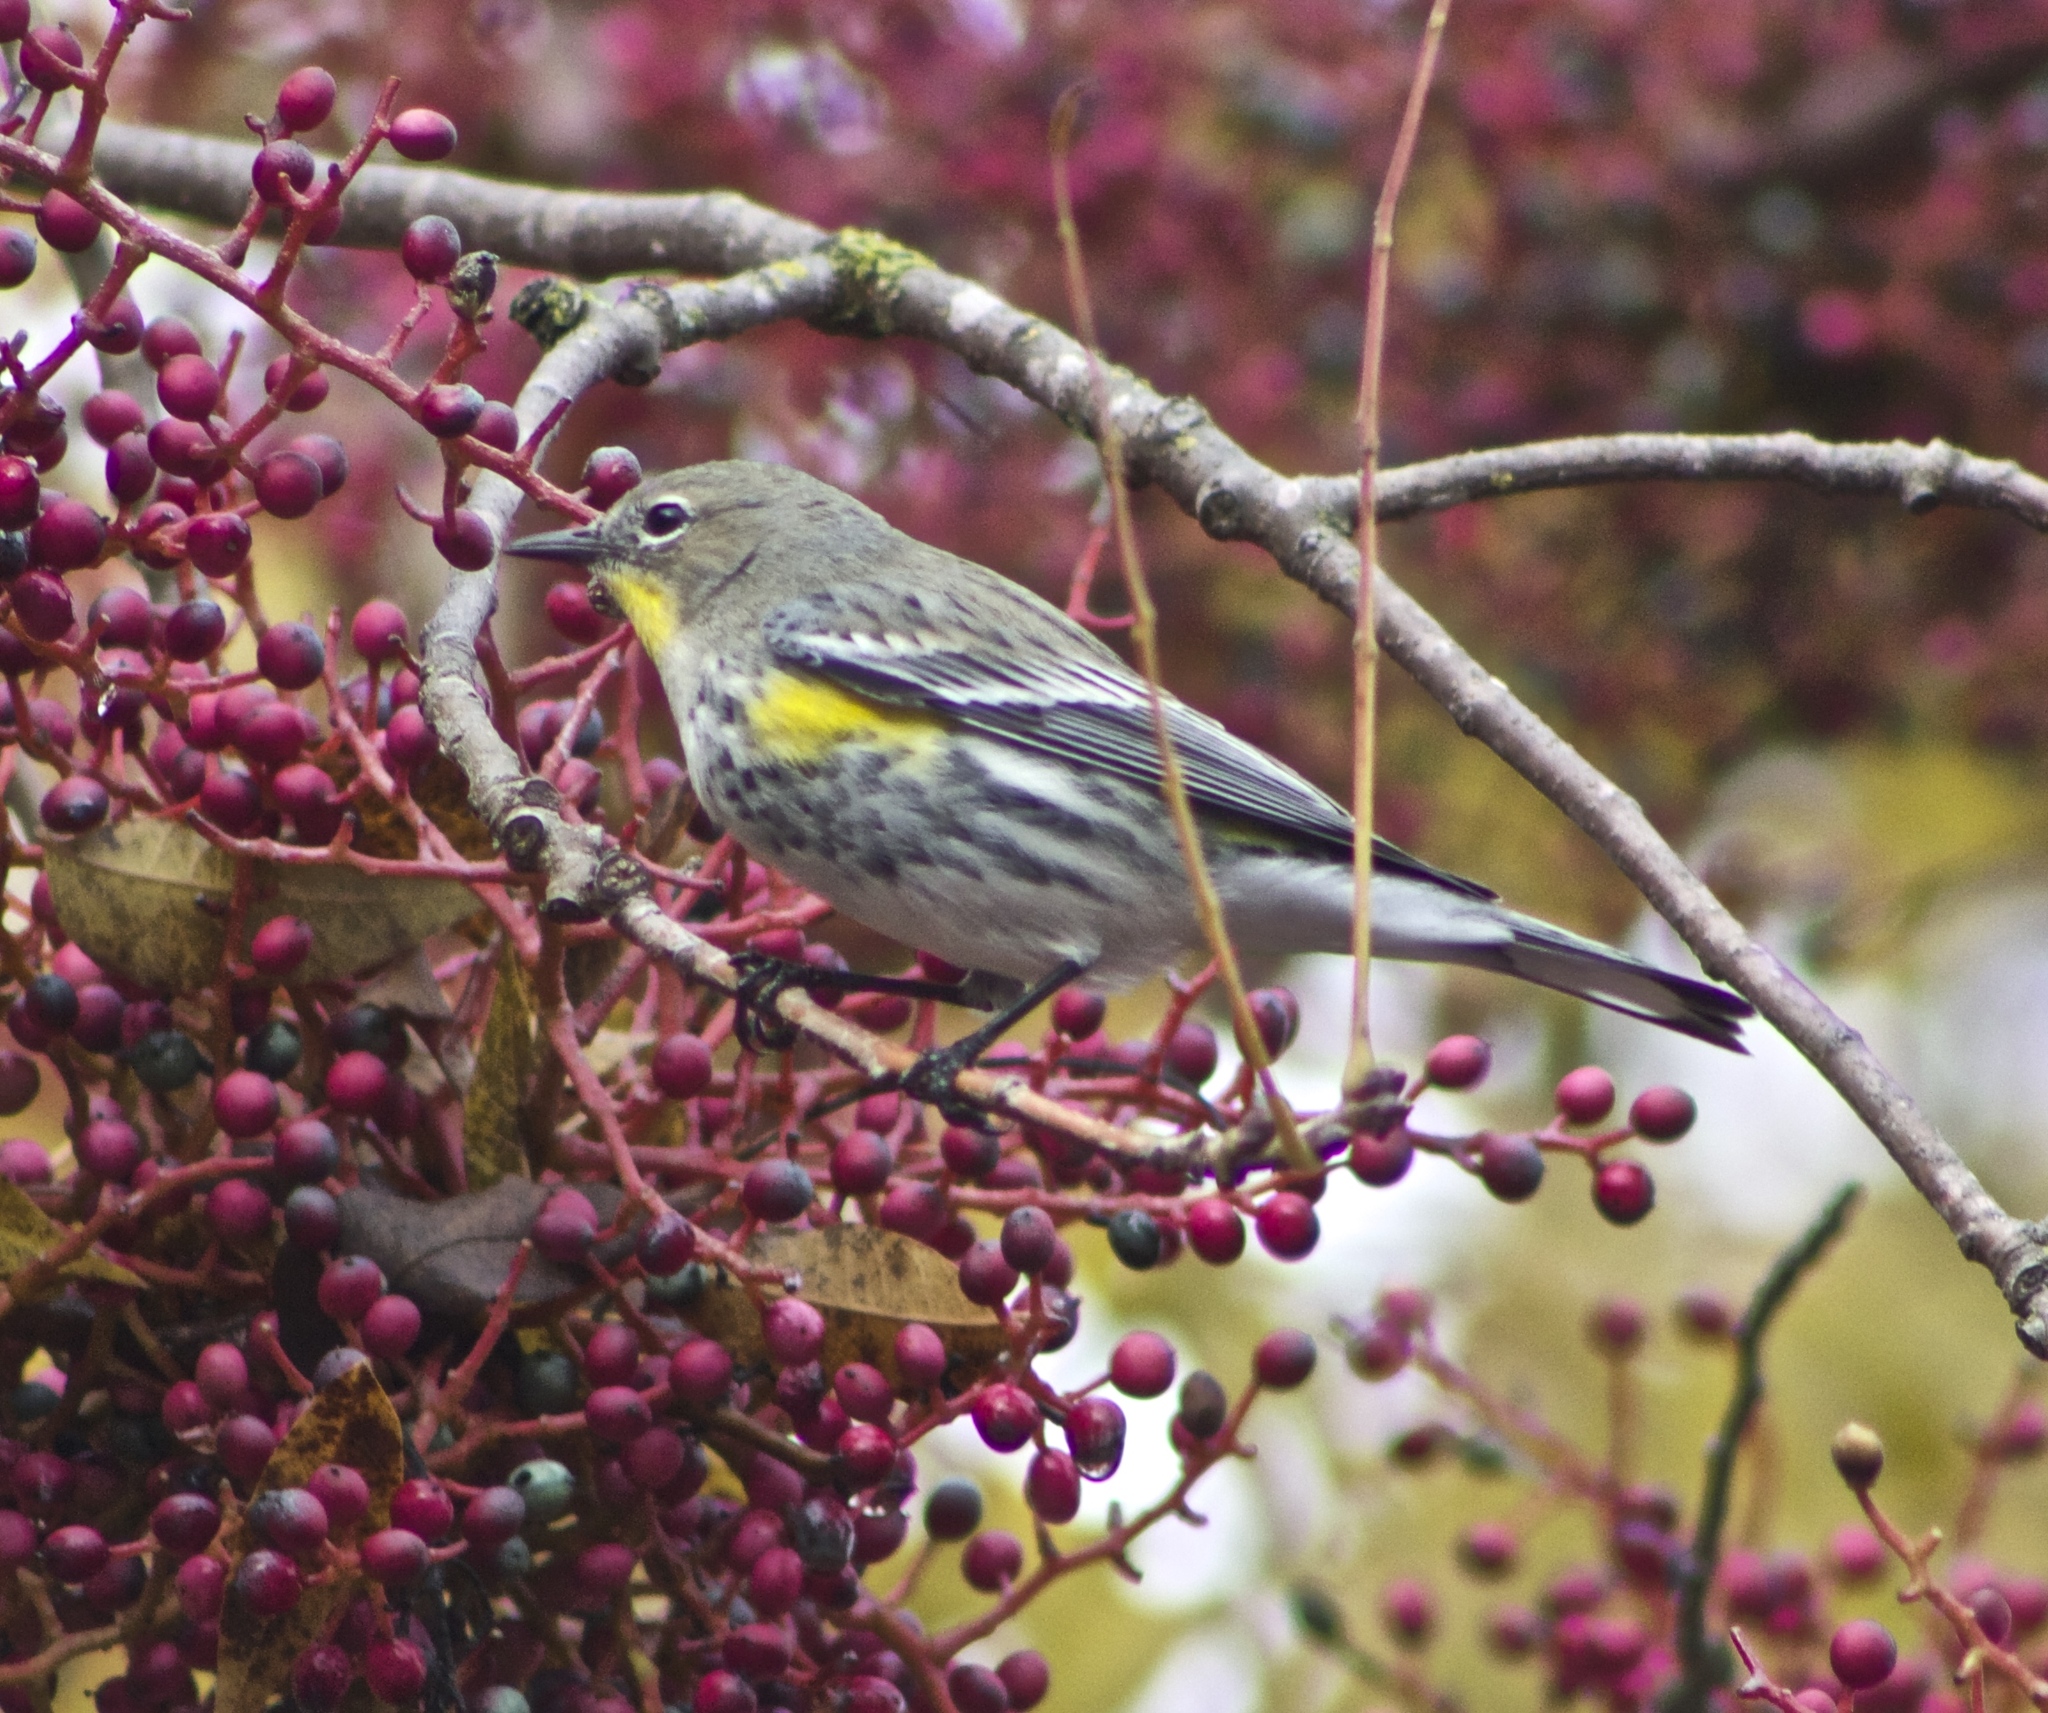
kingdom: Animalia
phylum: Chordata
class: Aves
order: Passeriformes
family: Parulidae
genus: Setophaga
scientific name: Setophaga auduboni
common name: Audubon's warbler
